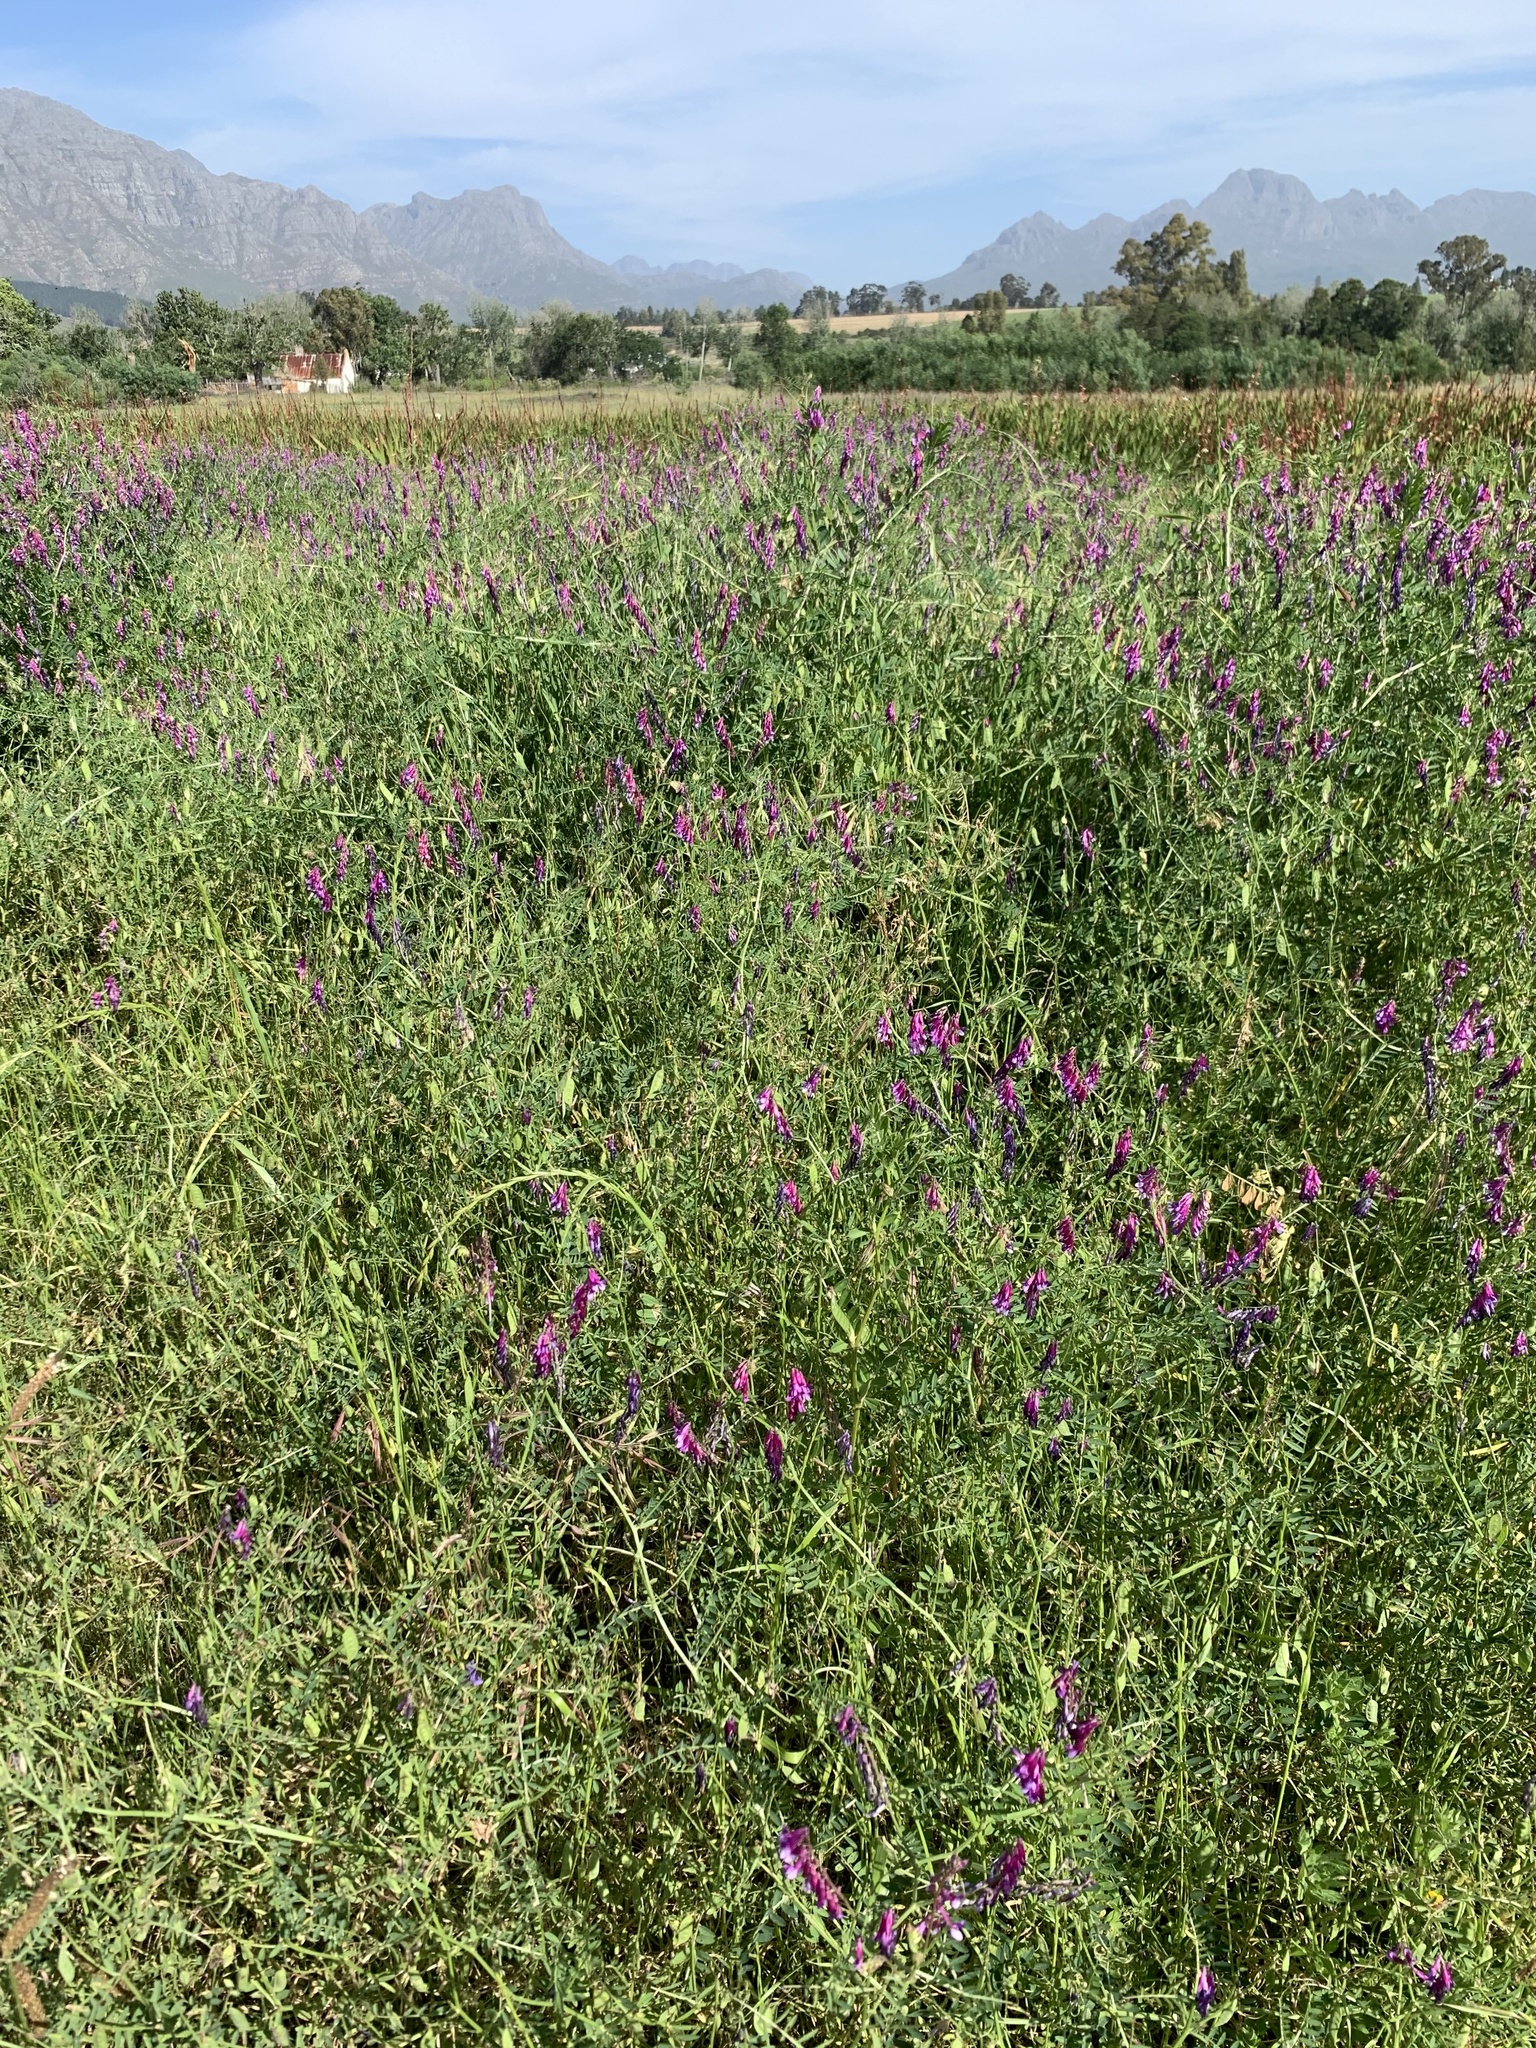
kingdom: Plantae
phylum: Tracheophyta
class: Magnoliopsida
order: Fabales
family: Fabaceae
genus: Vicia
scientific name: Vicia eriocarpa
